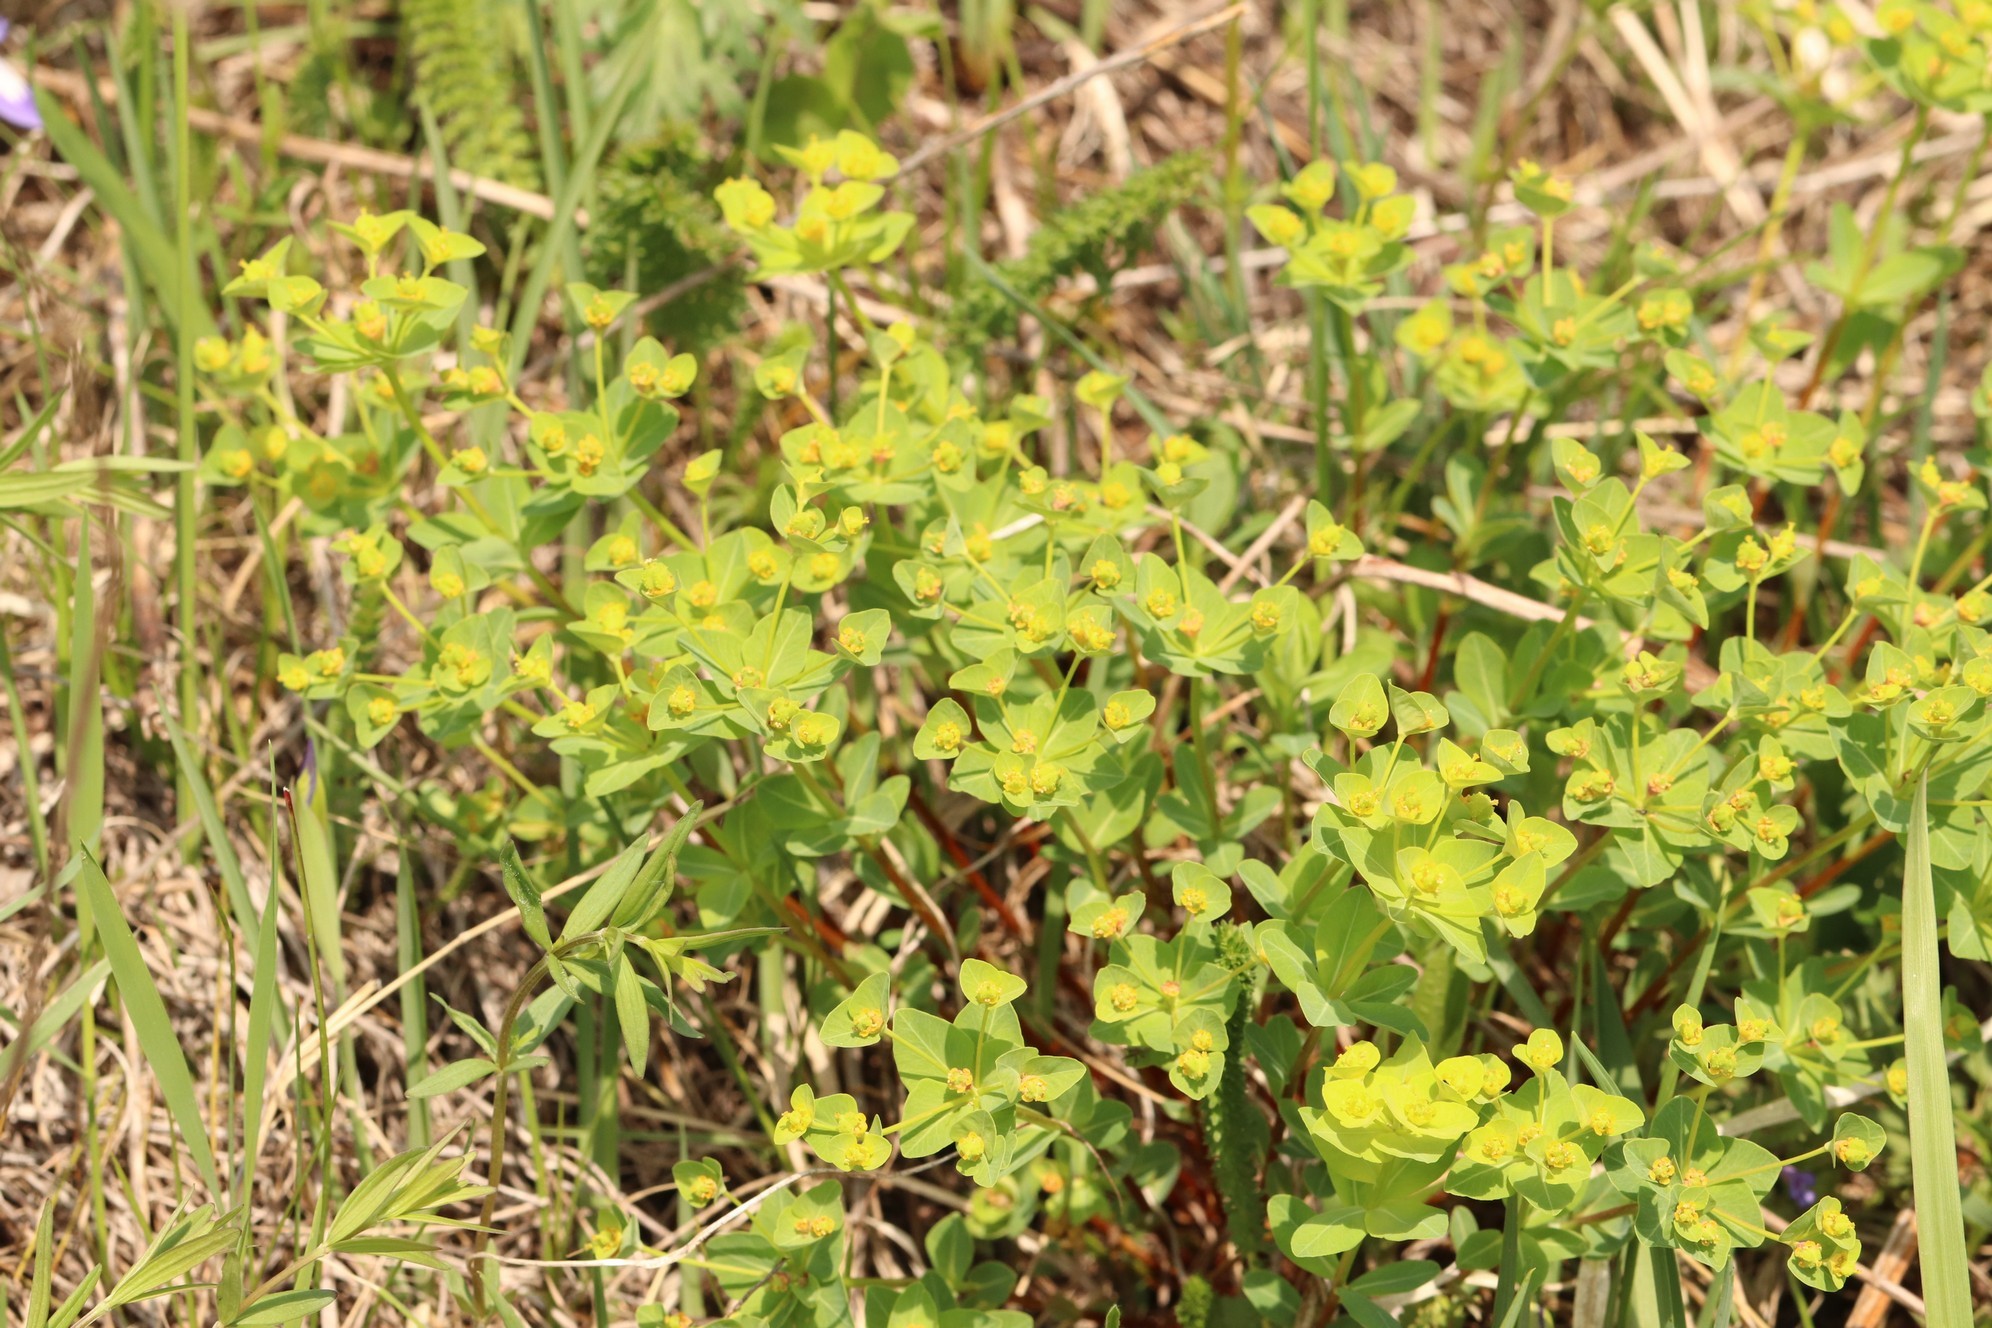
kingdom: Plantae
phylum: Tracheophyta
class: Magnoliopsida
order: Malpighiales
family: Euphorbiaceae
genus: Euphorbia
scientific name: Euphorbia alpina
